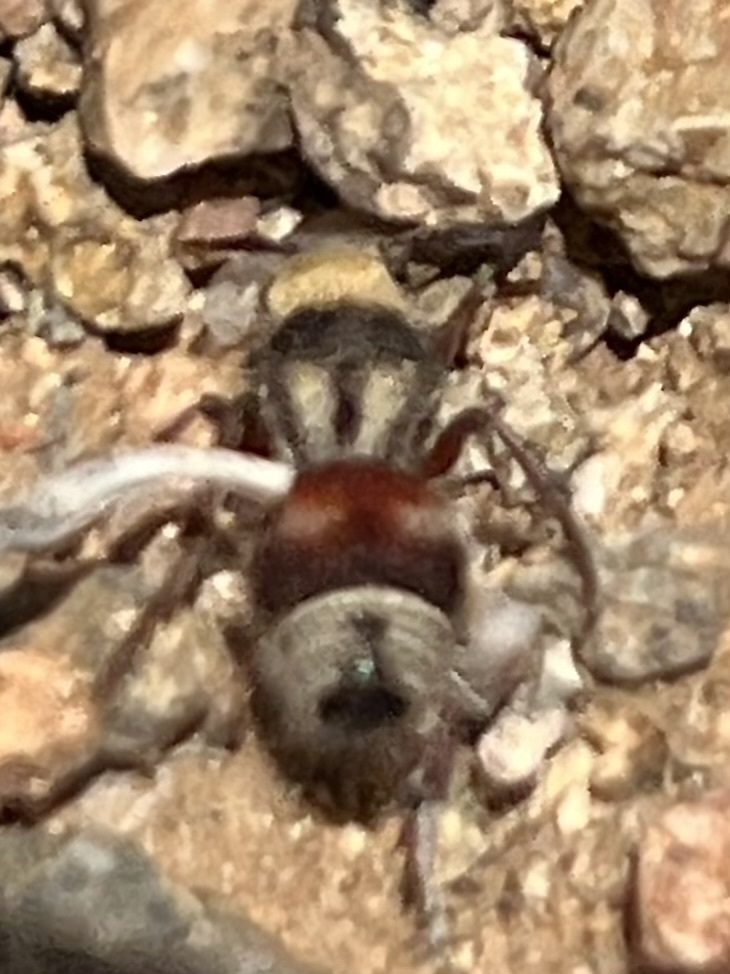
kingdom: Animalia
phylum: Arthropoda
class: Insecta
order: Hymenoptera
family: Mutillidae
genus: Dasymutilla
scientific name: Dasymutilla
